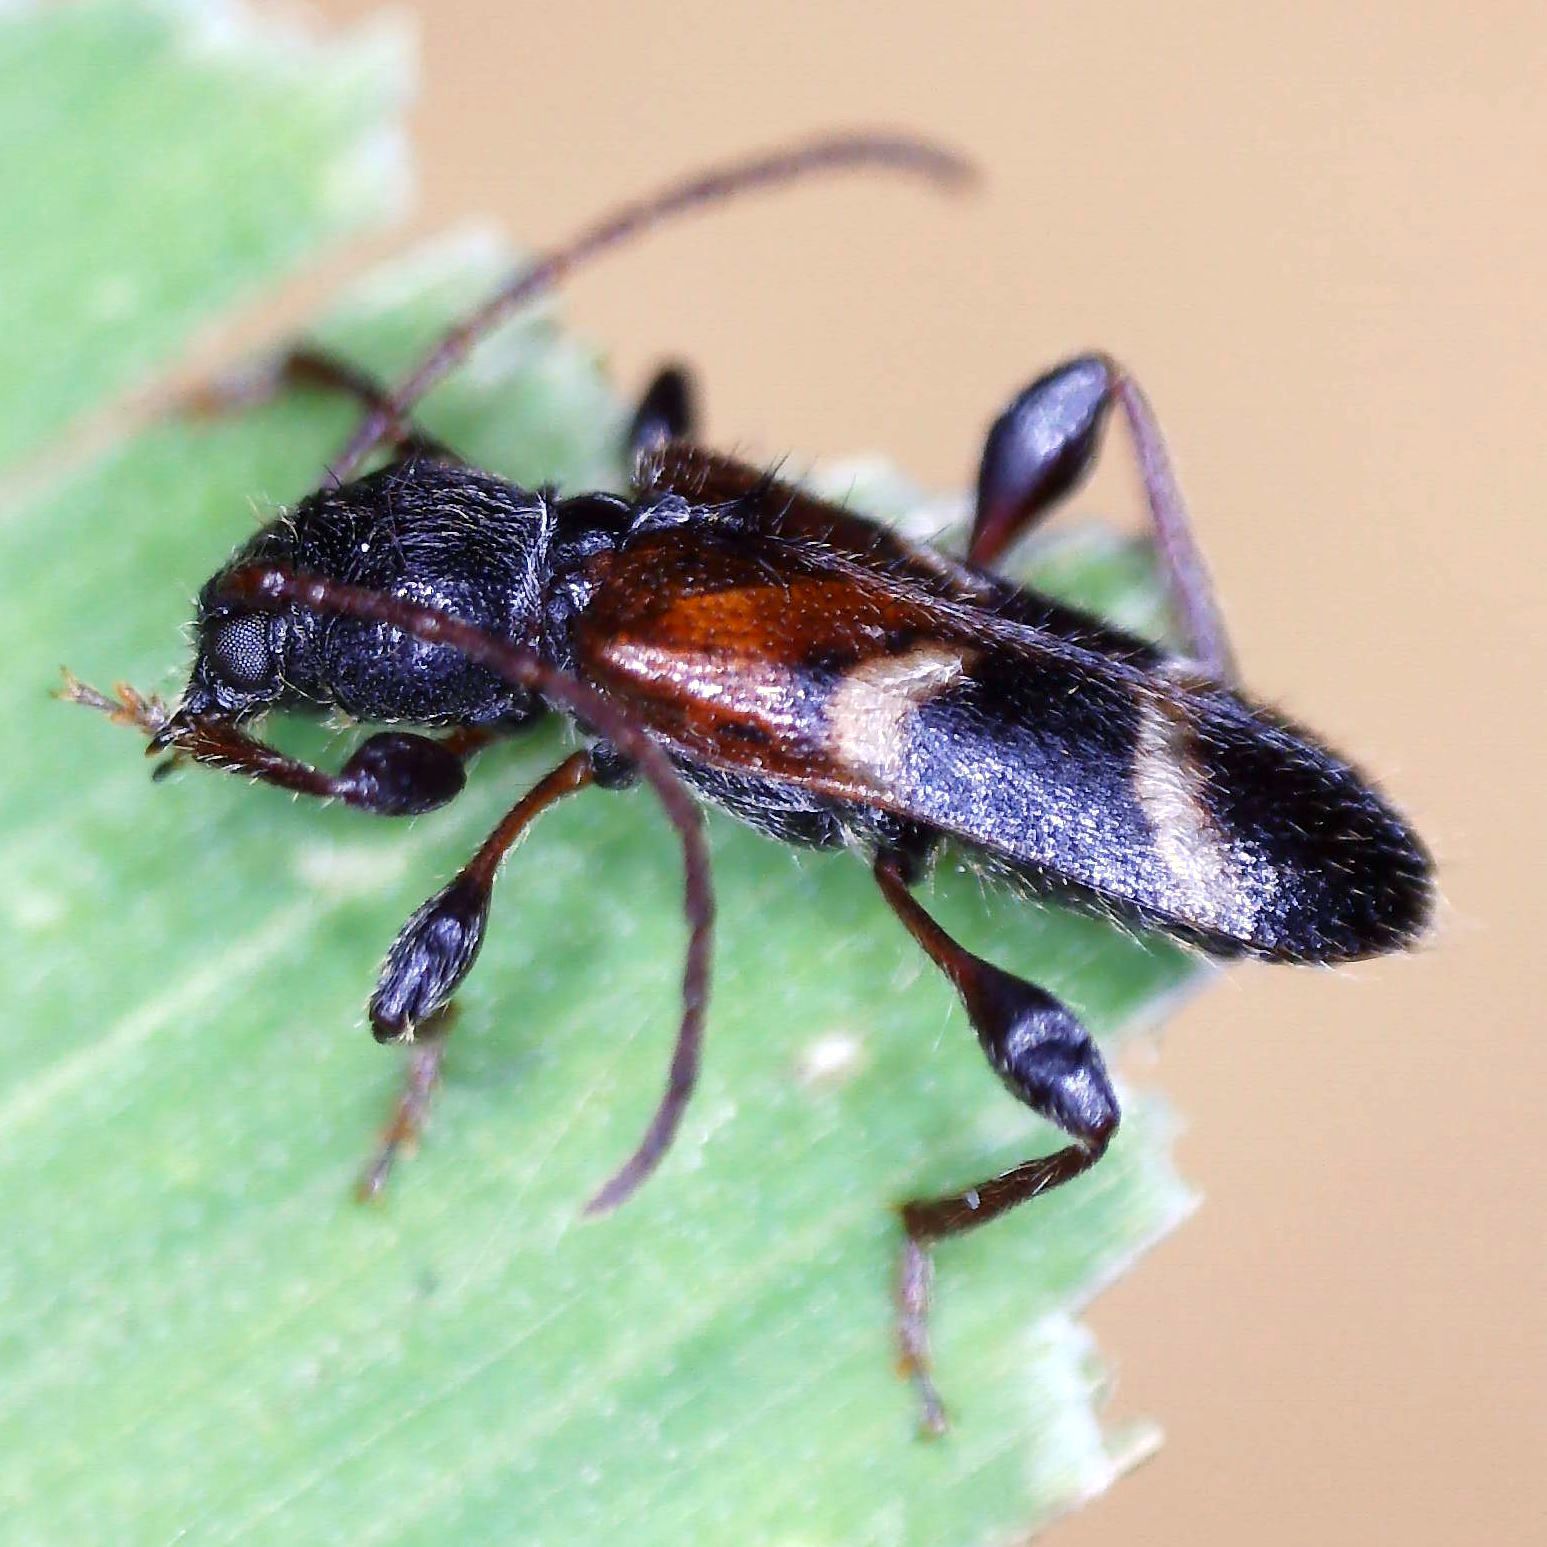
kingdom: Animalia
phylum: Arthropoda
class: Insecta
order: Coleoptera
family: Cerambycidae
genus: Poecilium
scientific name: Poecilium alni
